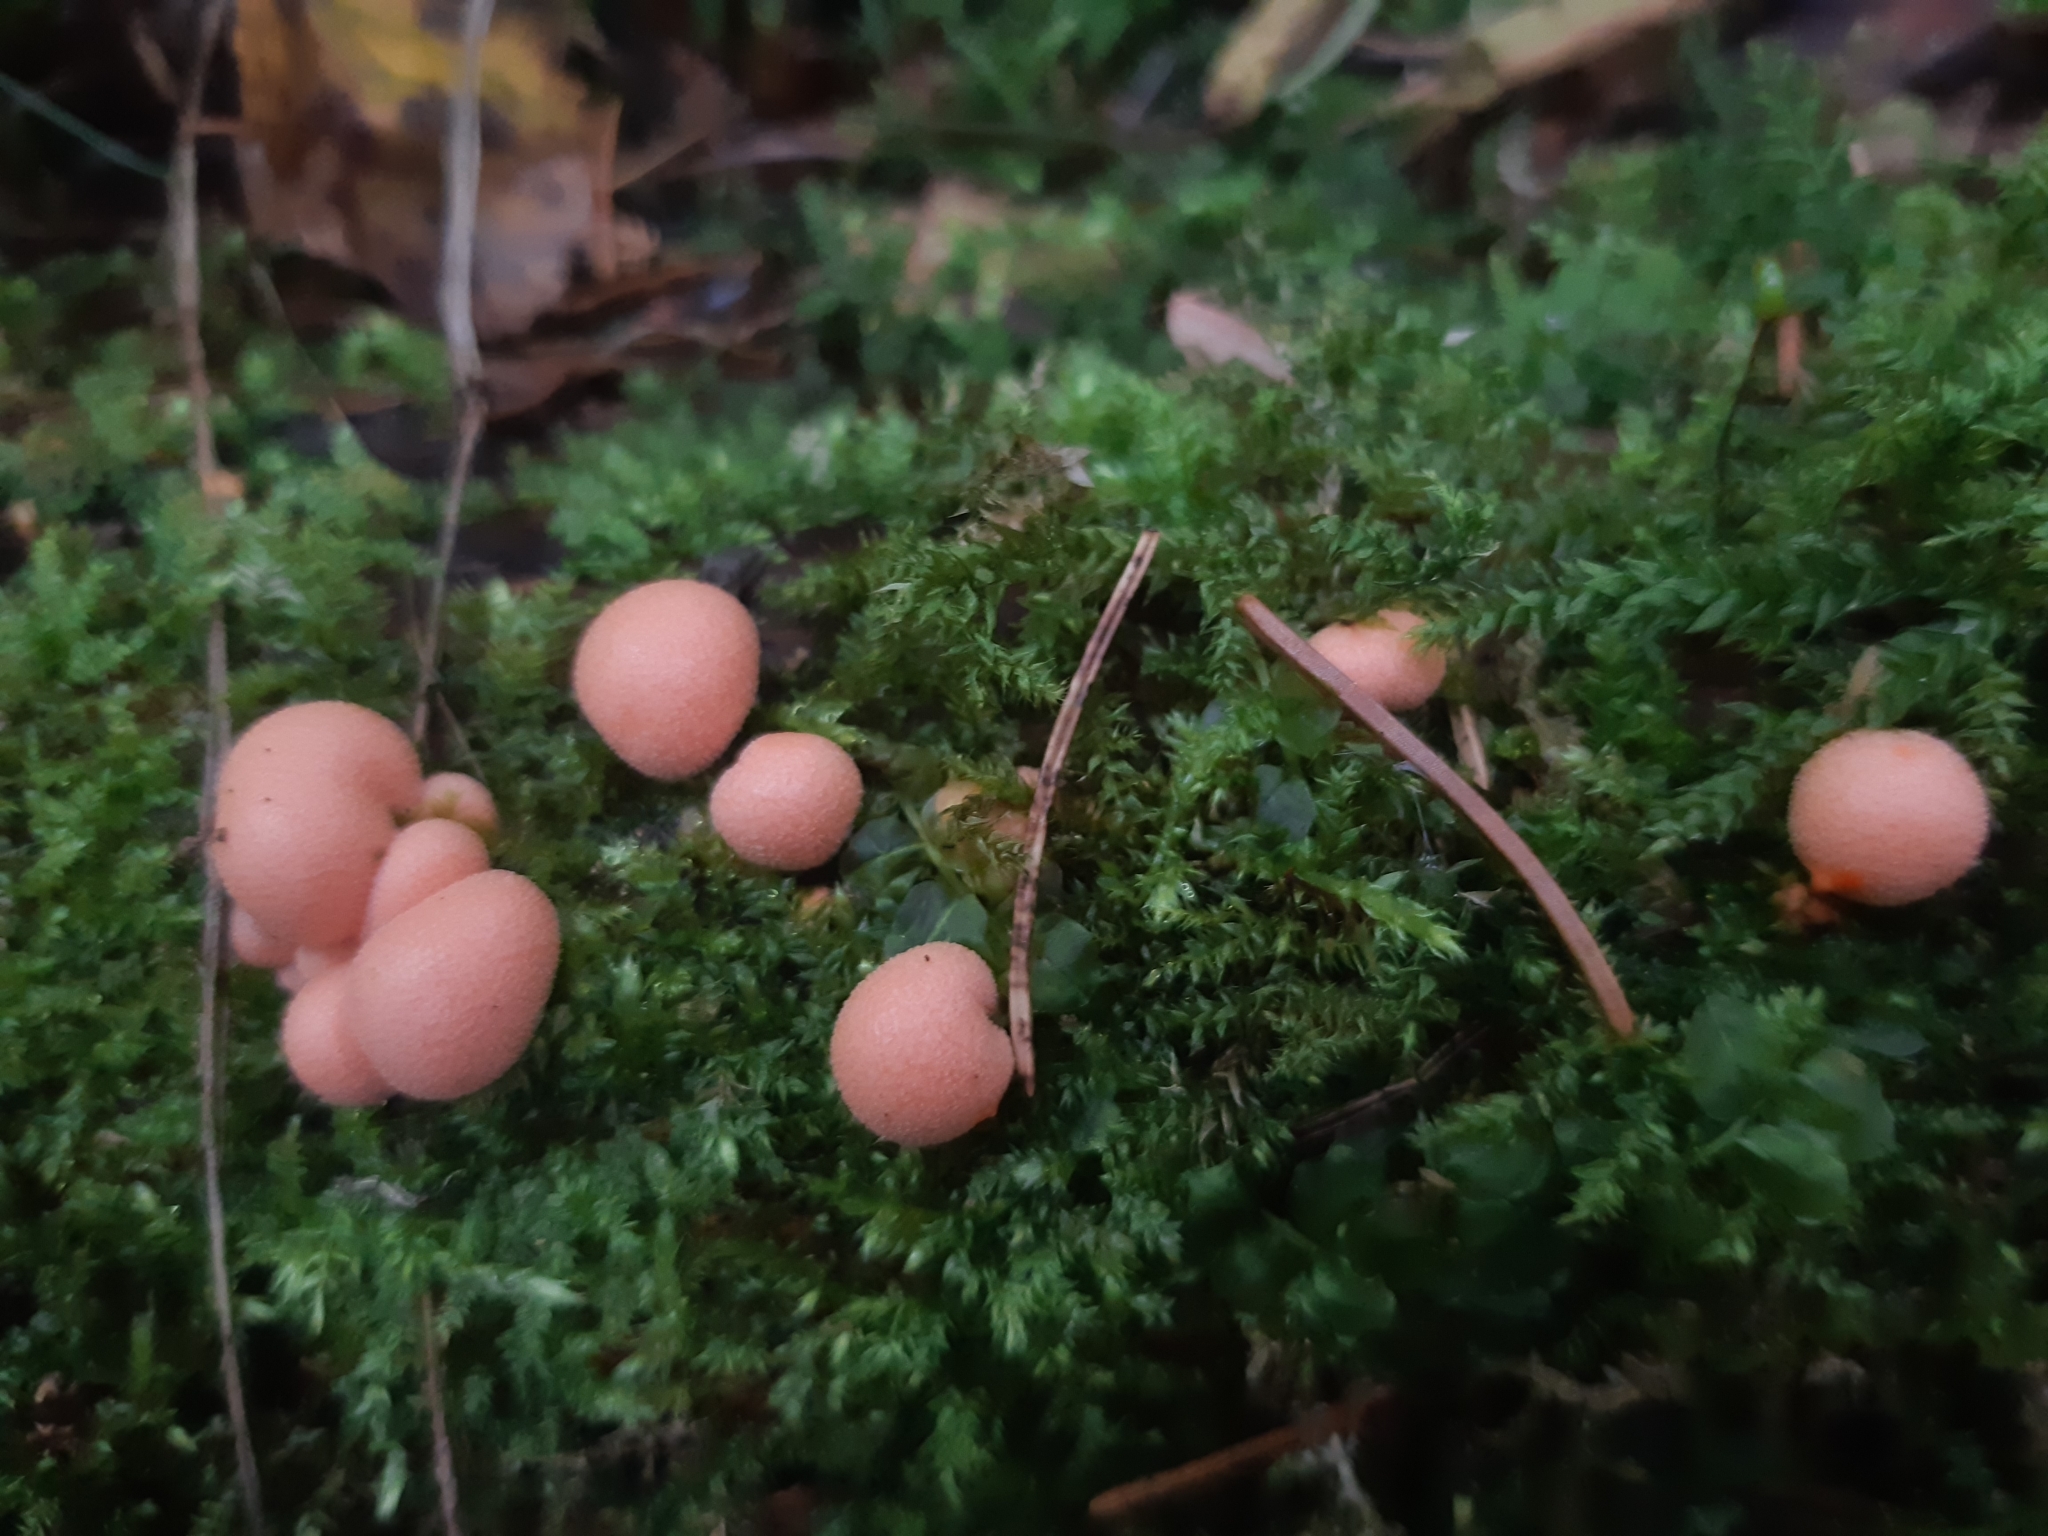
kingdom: Protozoa
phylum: Mycetozoa
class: Myxomycetes
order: Cribrariales
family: Tubiferaceae
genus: Lycogala
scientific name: Lycogala epidendrum
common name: Wolf's milk
